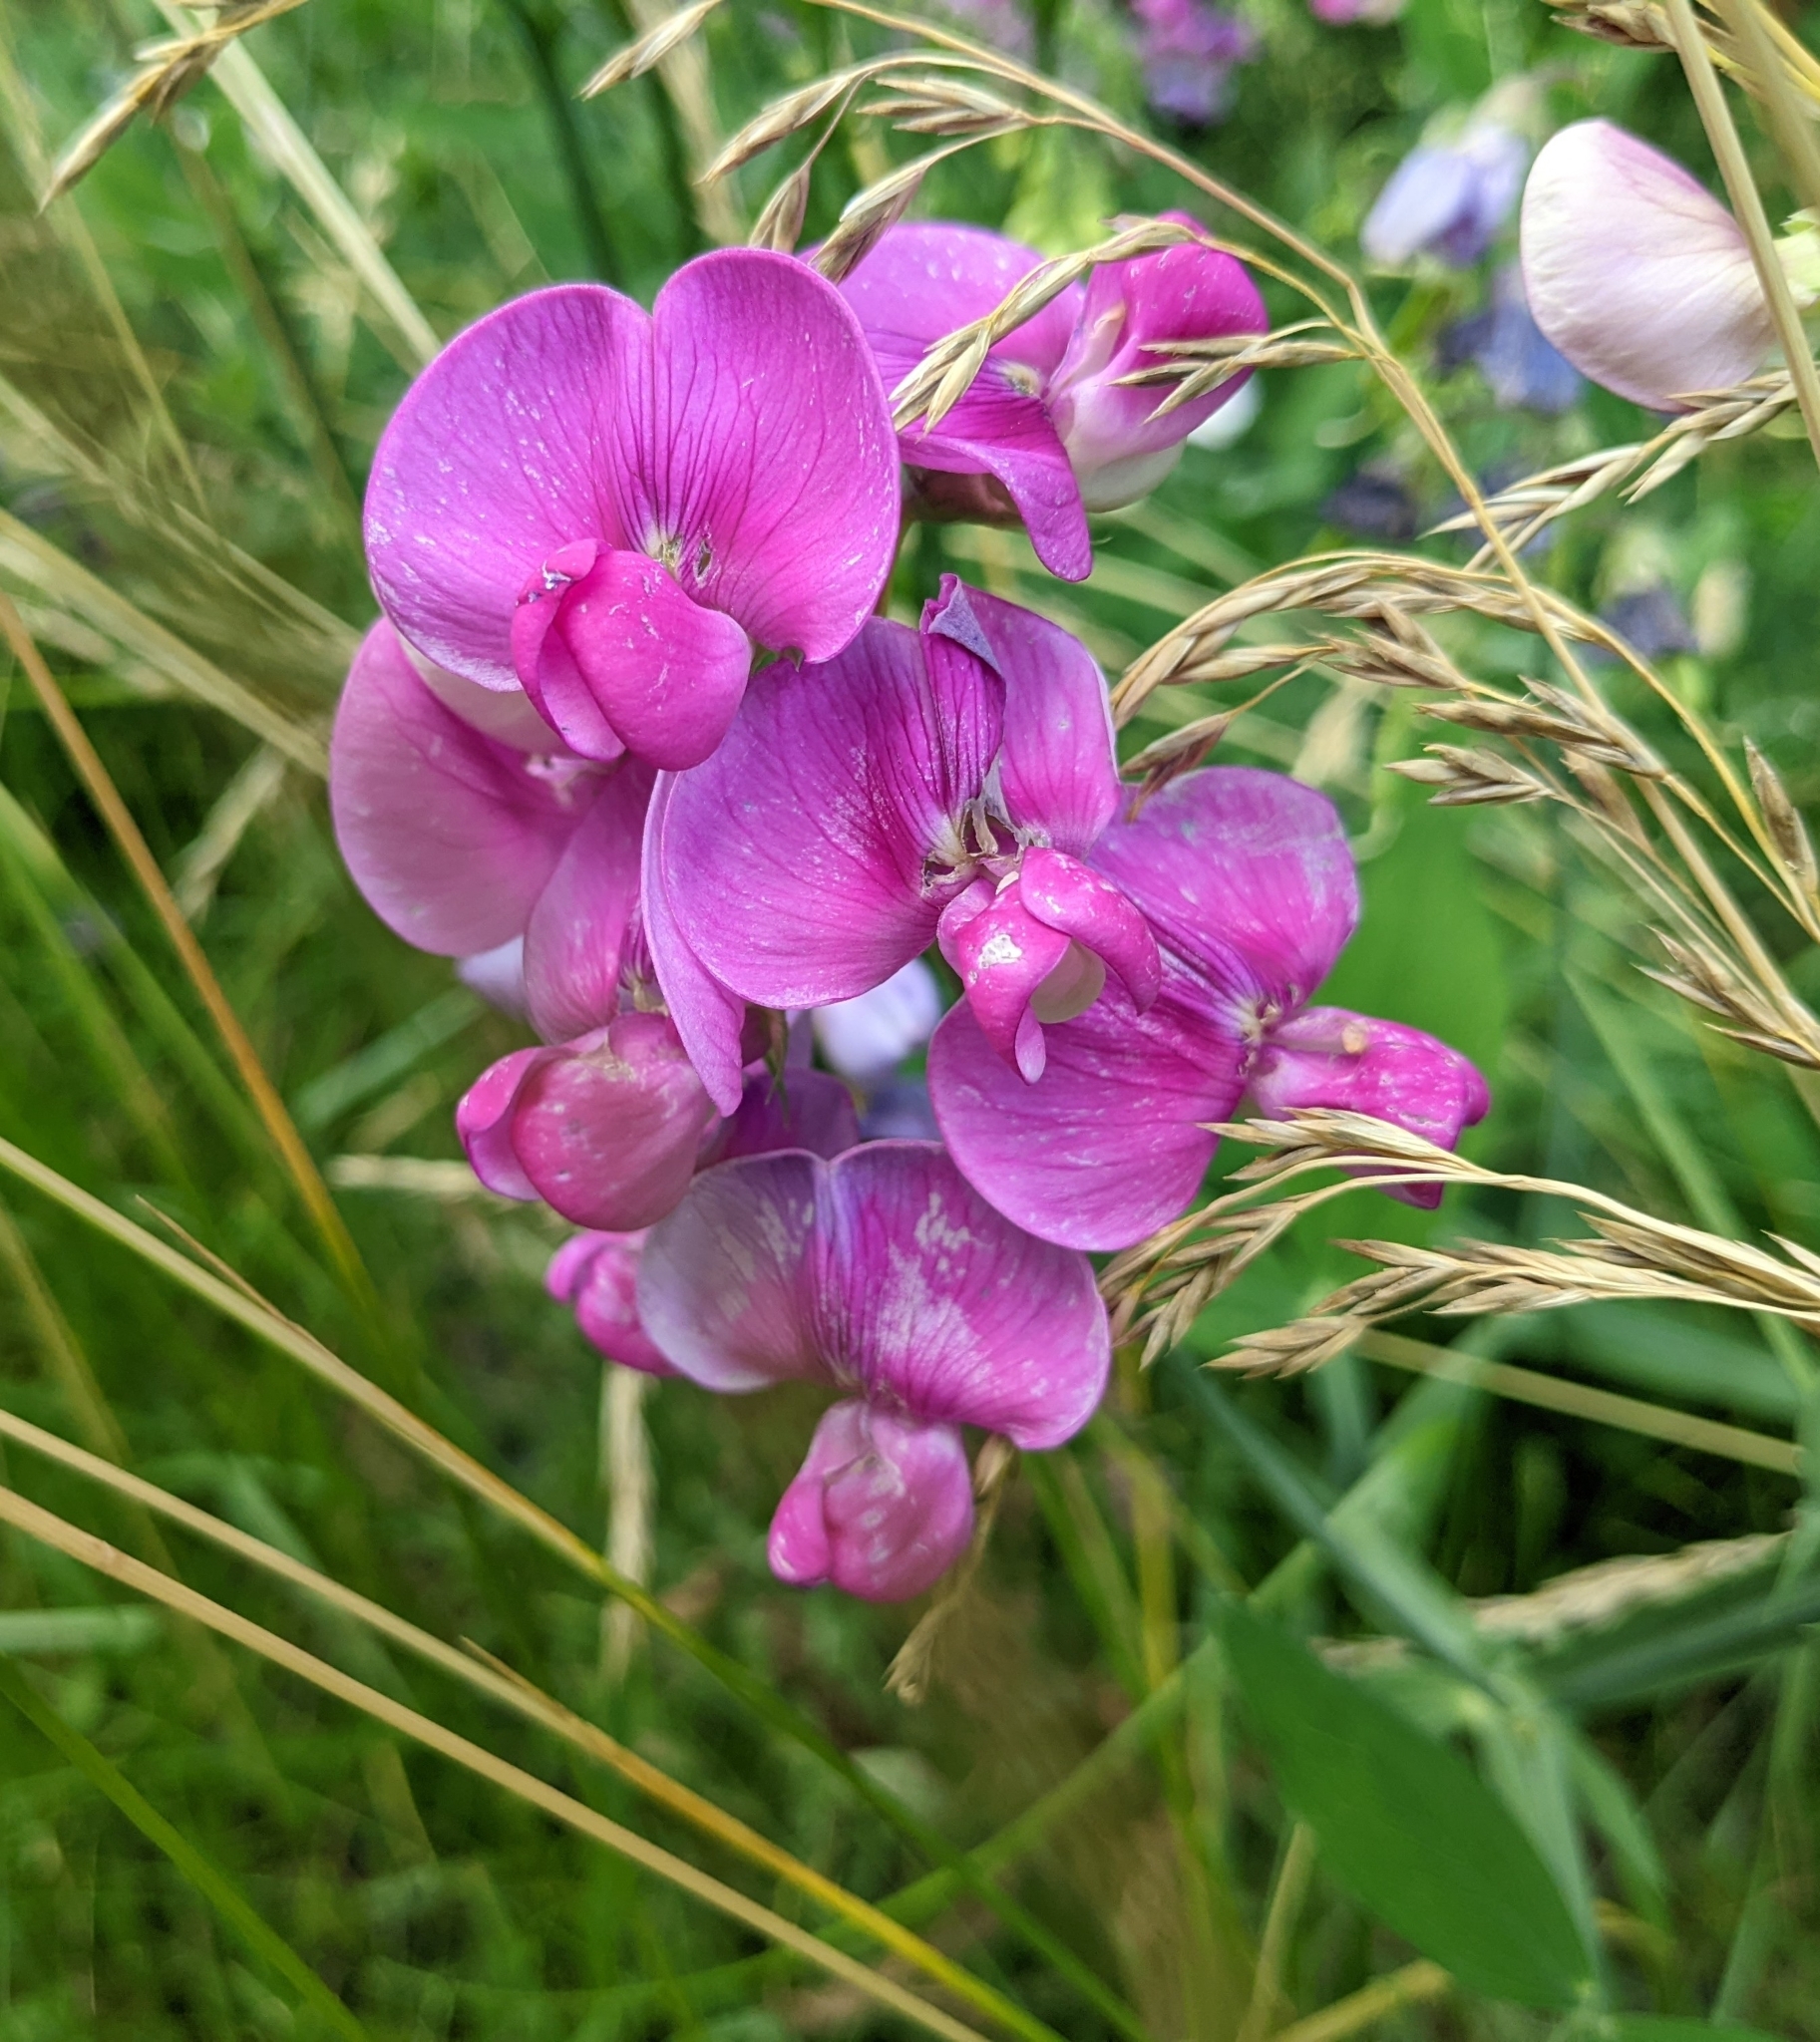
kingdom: Plantae
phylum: Tracheophyta
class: Magnoliopsida
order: Fabales
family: Fabaceae
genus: Lathyrus
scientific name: Lathyrus latifolius
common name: Perennial pea
